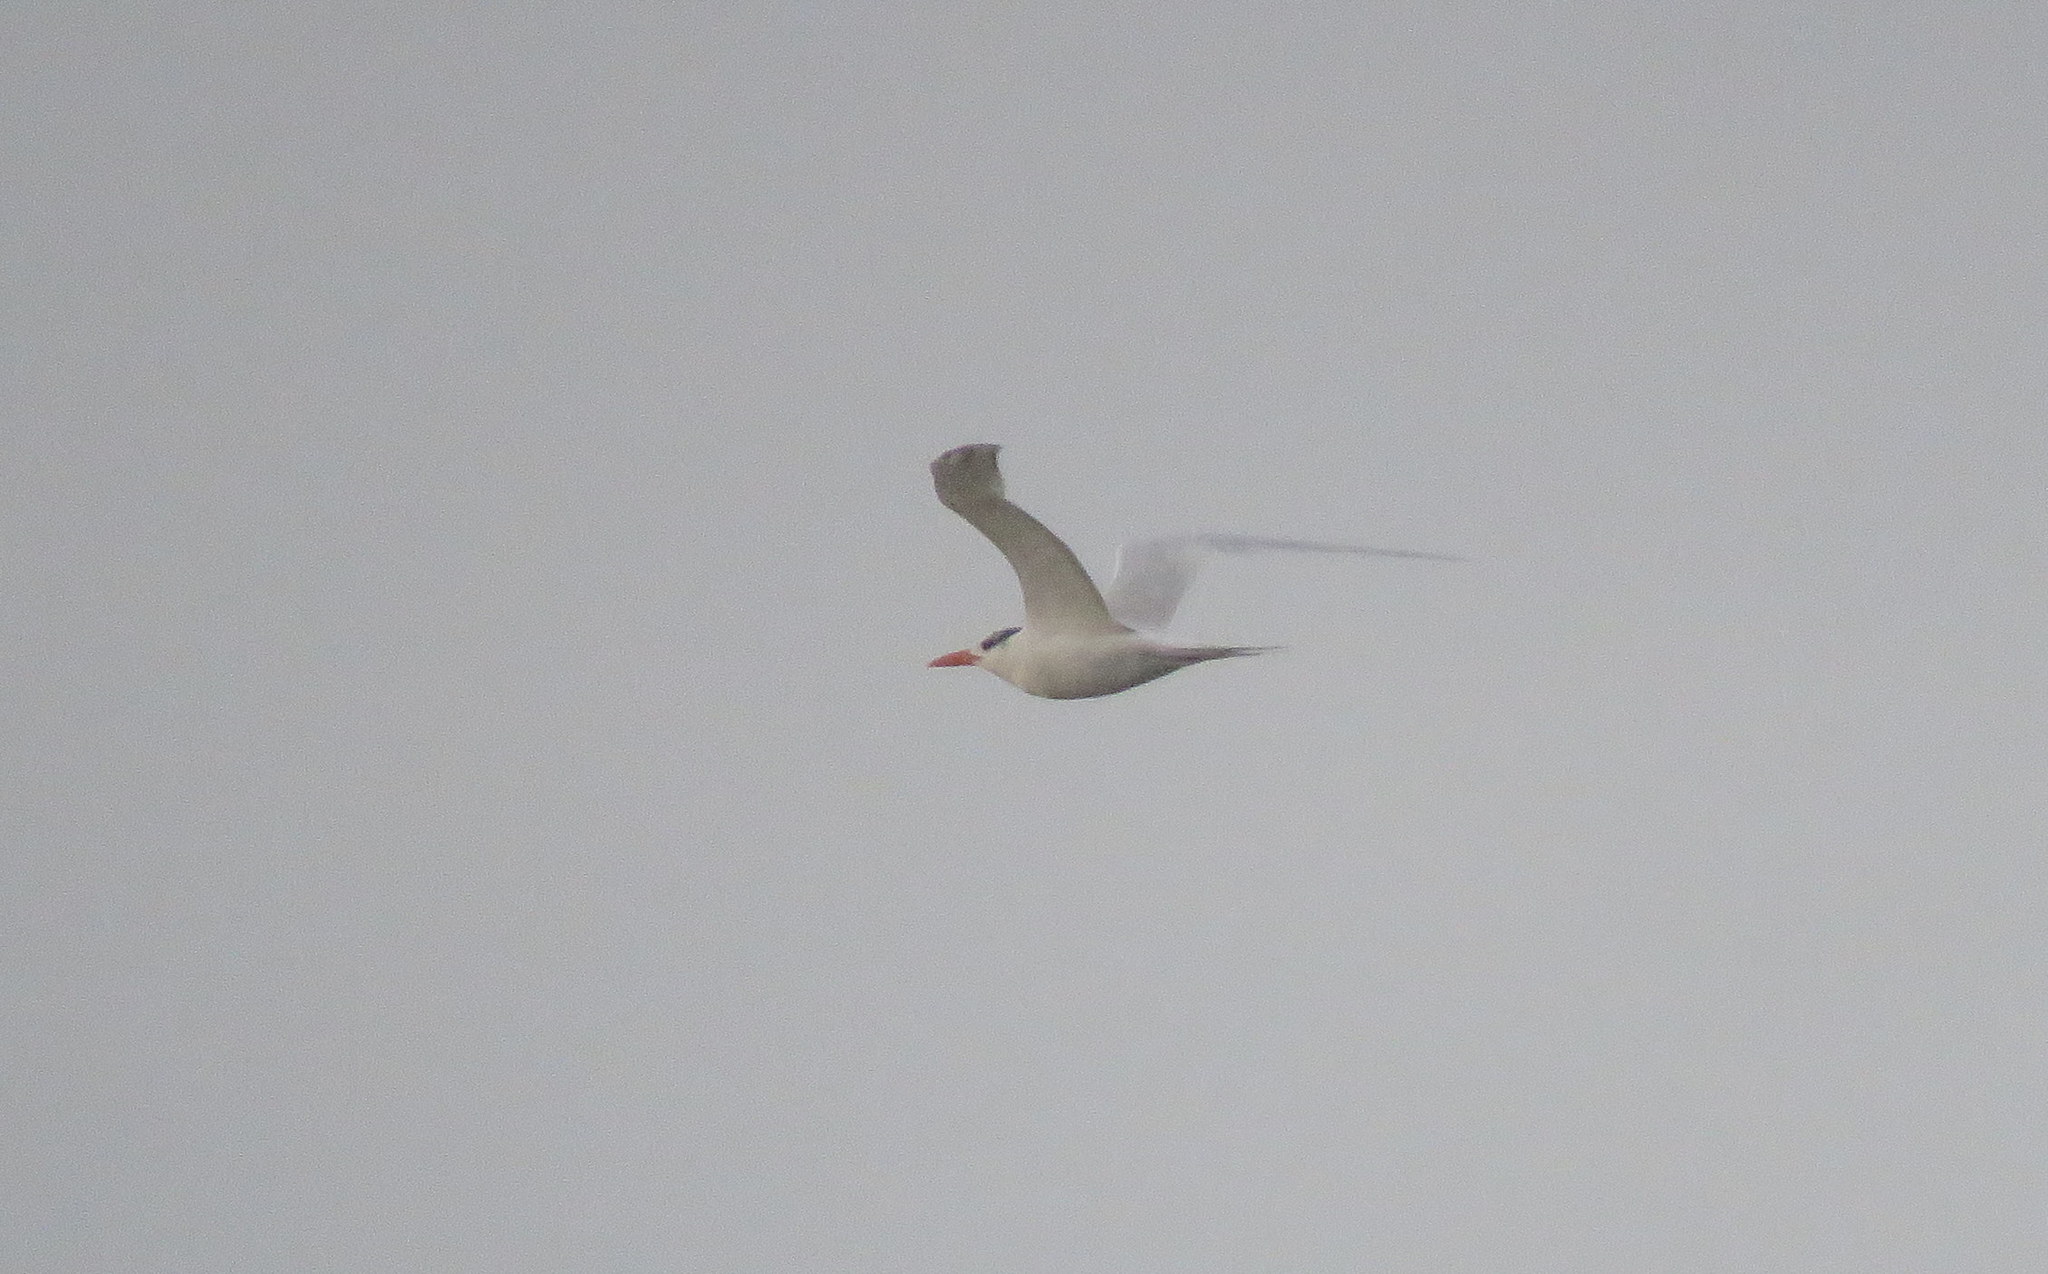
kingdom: Animalia
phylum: Chordata
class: Aves
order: Charadriiformes
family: Laridae
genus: Thalasseus
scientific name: Thalasseus maximus
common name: Royal tern
